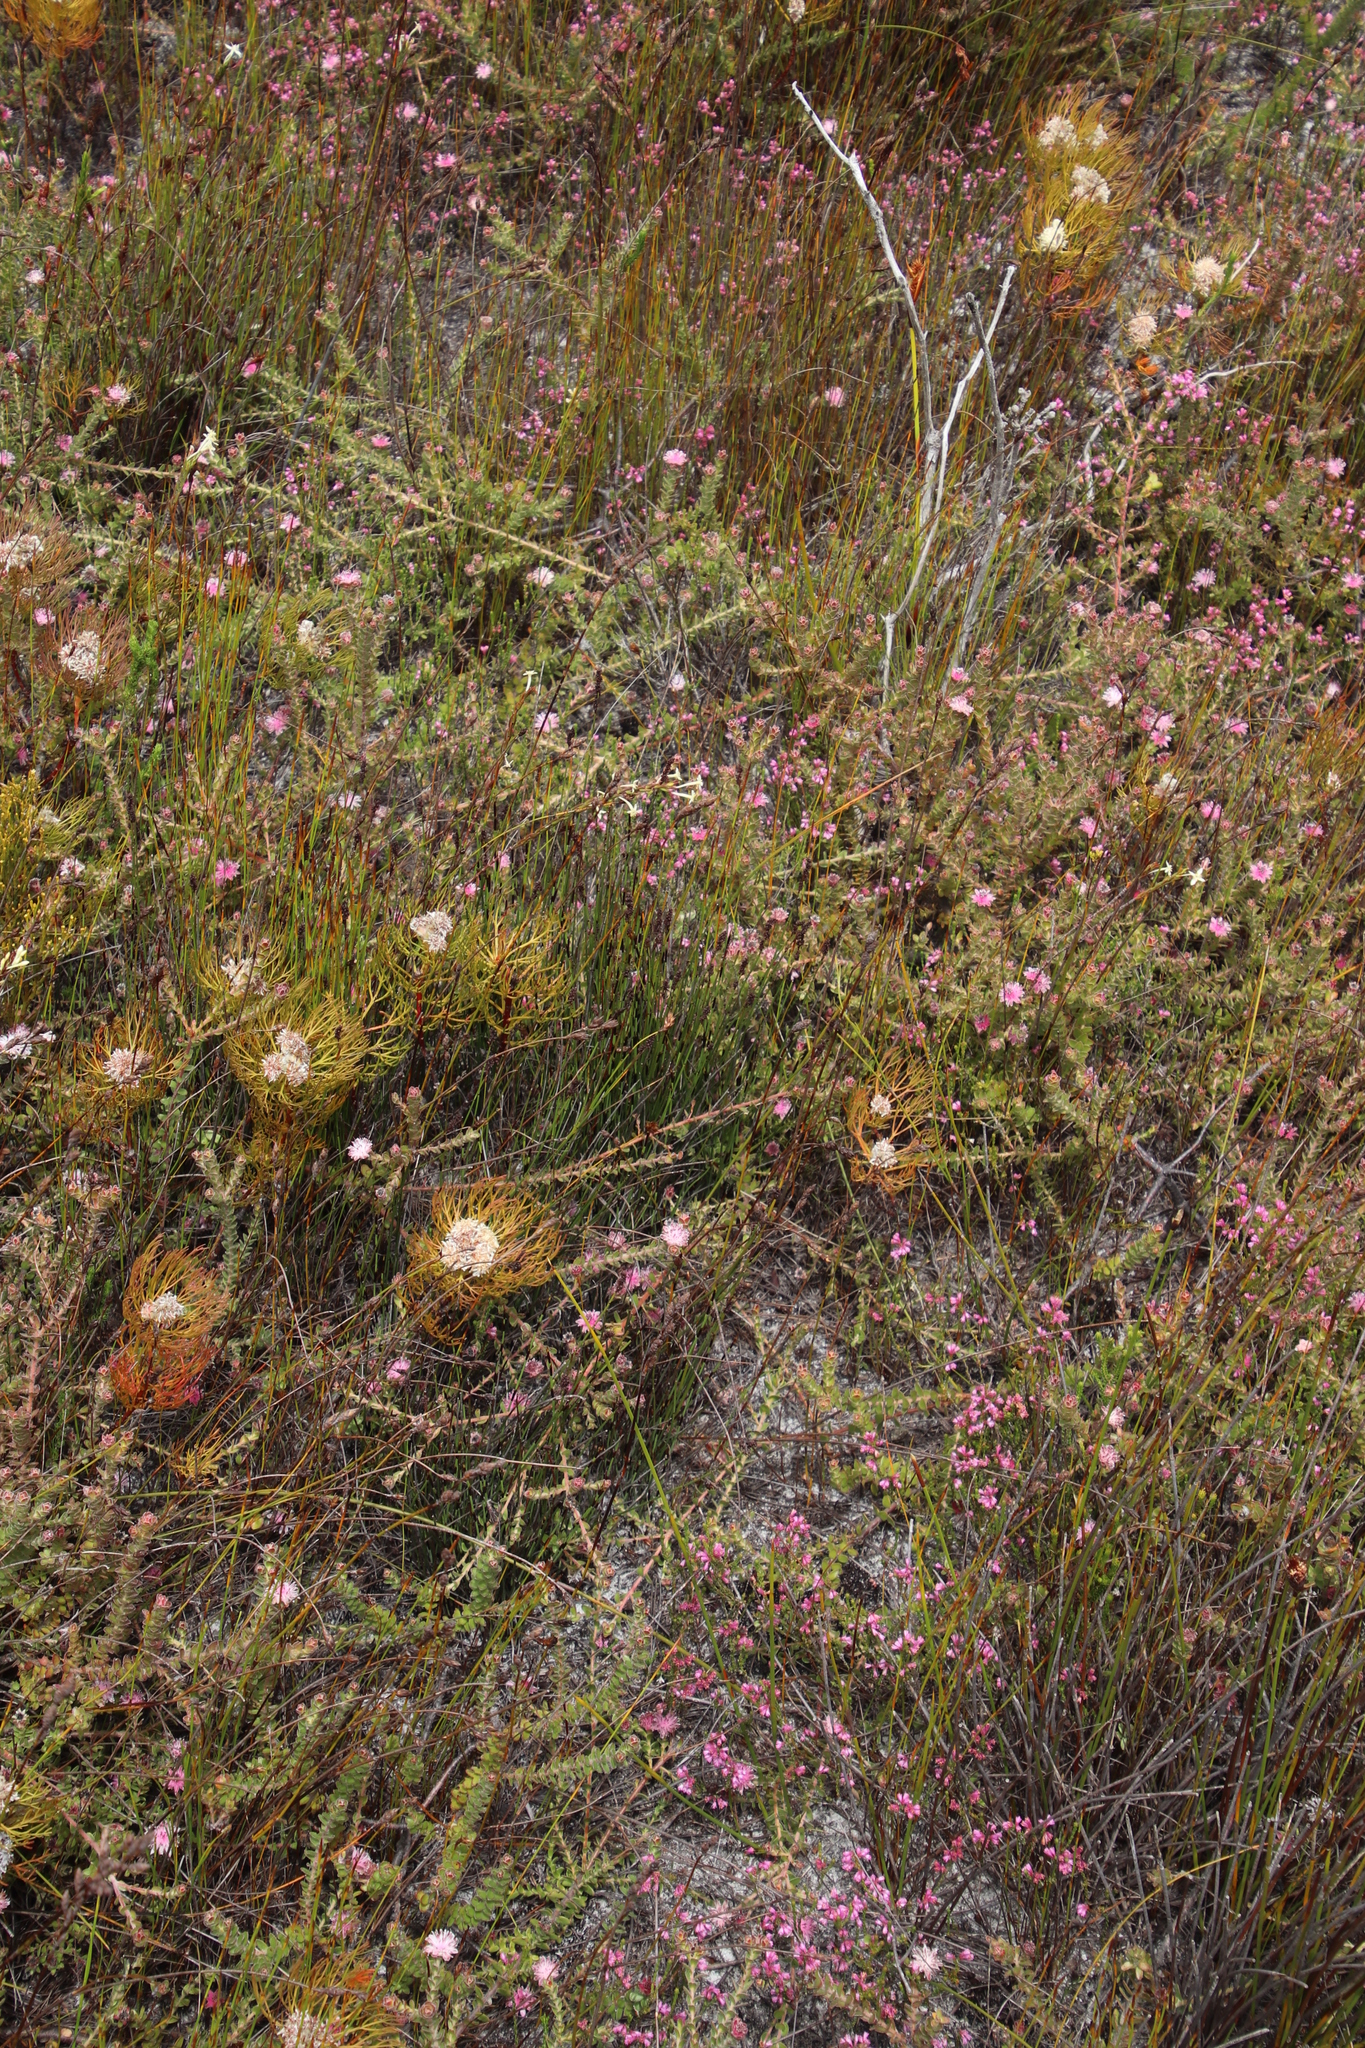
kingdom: Plantae
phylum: Tracheophyta
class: Magnoliopsida
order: Proteales
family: Proteaceae
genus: Diastella
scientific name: Diastella divaricata
